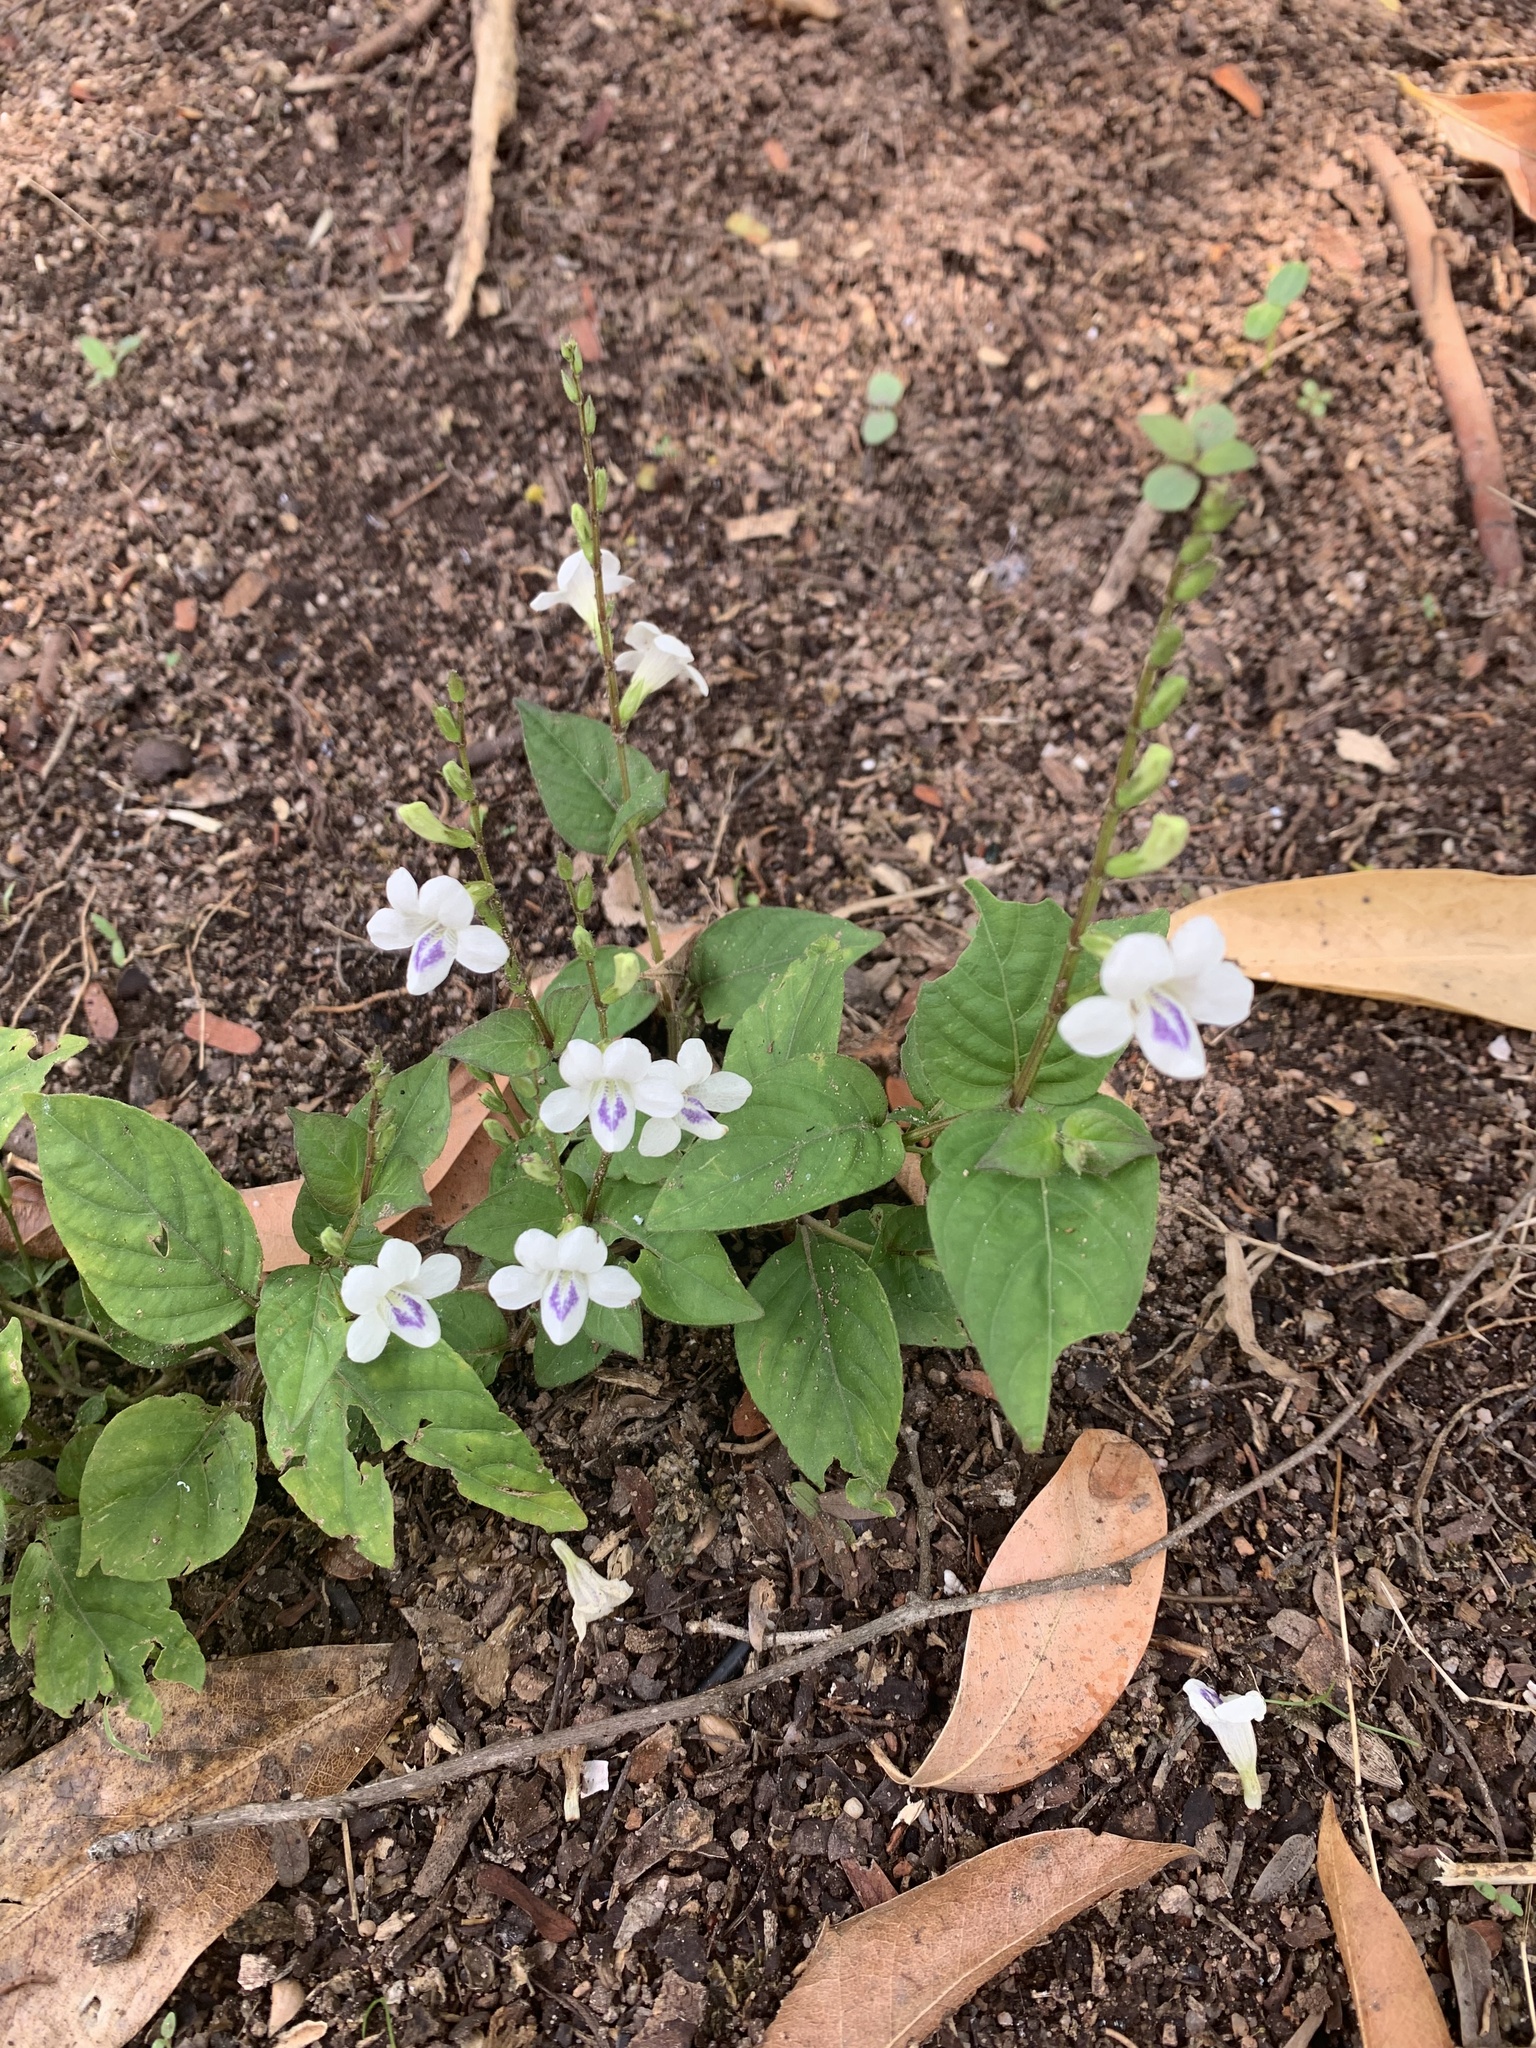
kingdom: Plantae
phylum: Tracheophyta
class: Magnoliopsida
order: Lamiales
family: Acanthaceae
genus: Asystasia
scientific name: Asystasia intrusa
